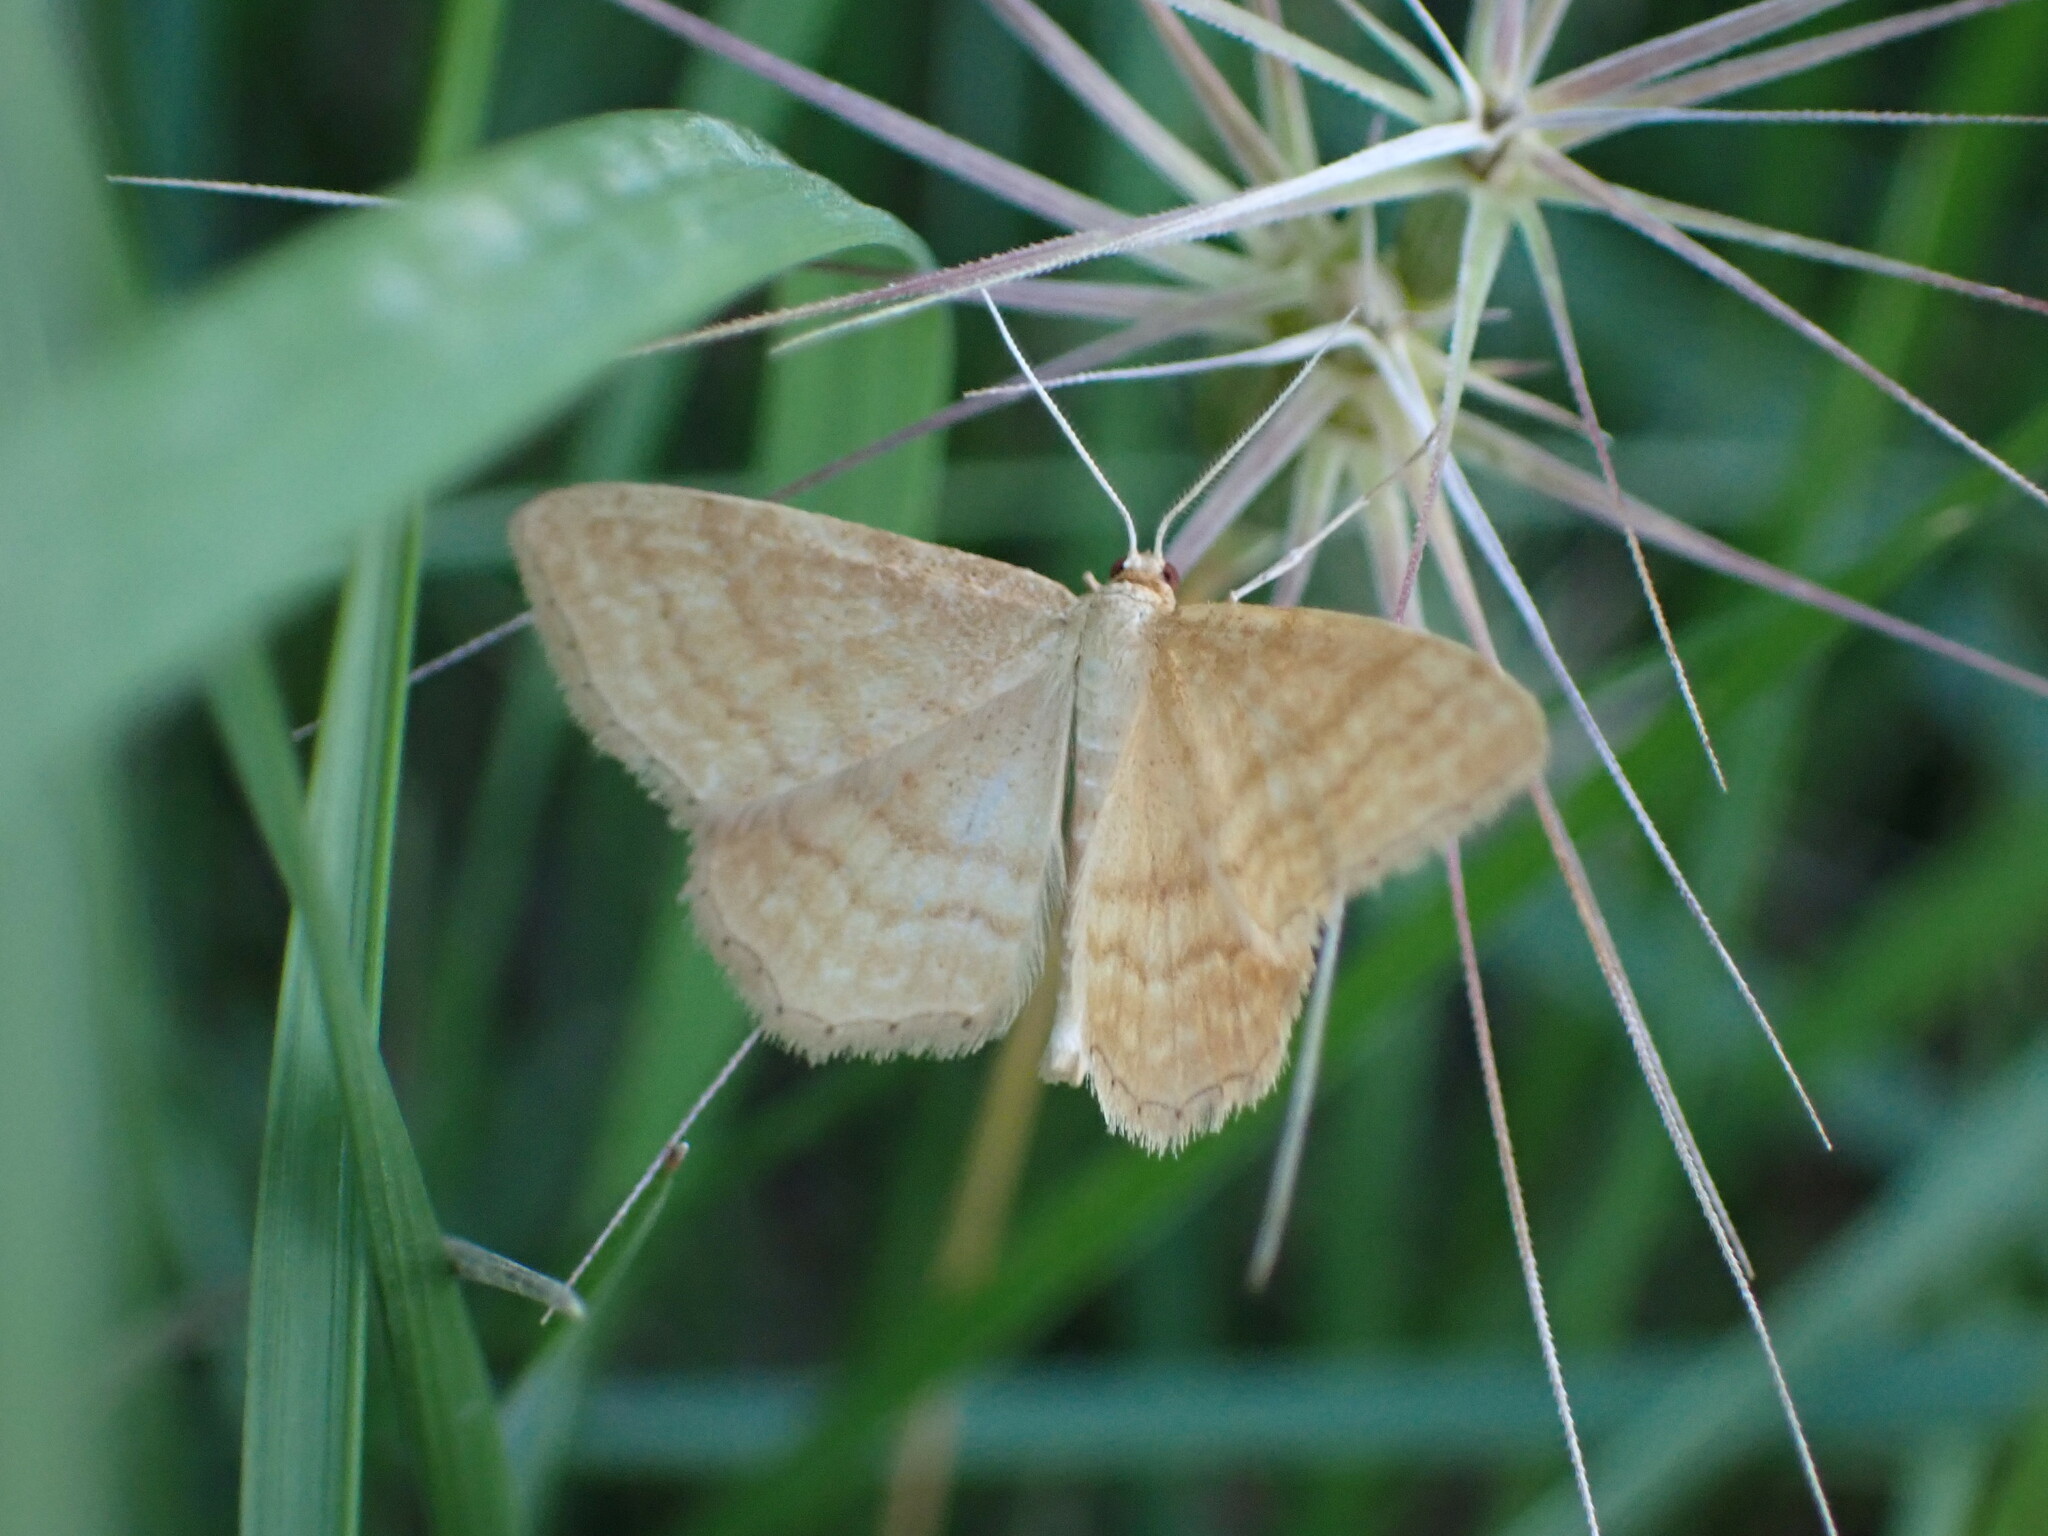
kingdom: Animalia
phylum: Arthropoda
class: Insecta
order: Lepidoptera
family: Geometridae
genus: Idaea
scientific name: Idaea ochrata
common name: Bright wave
